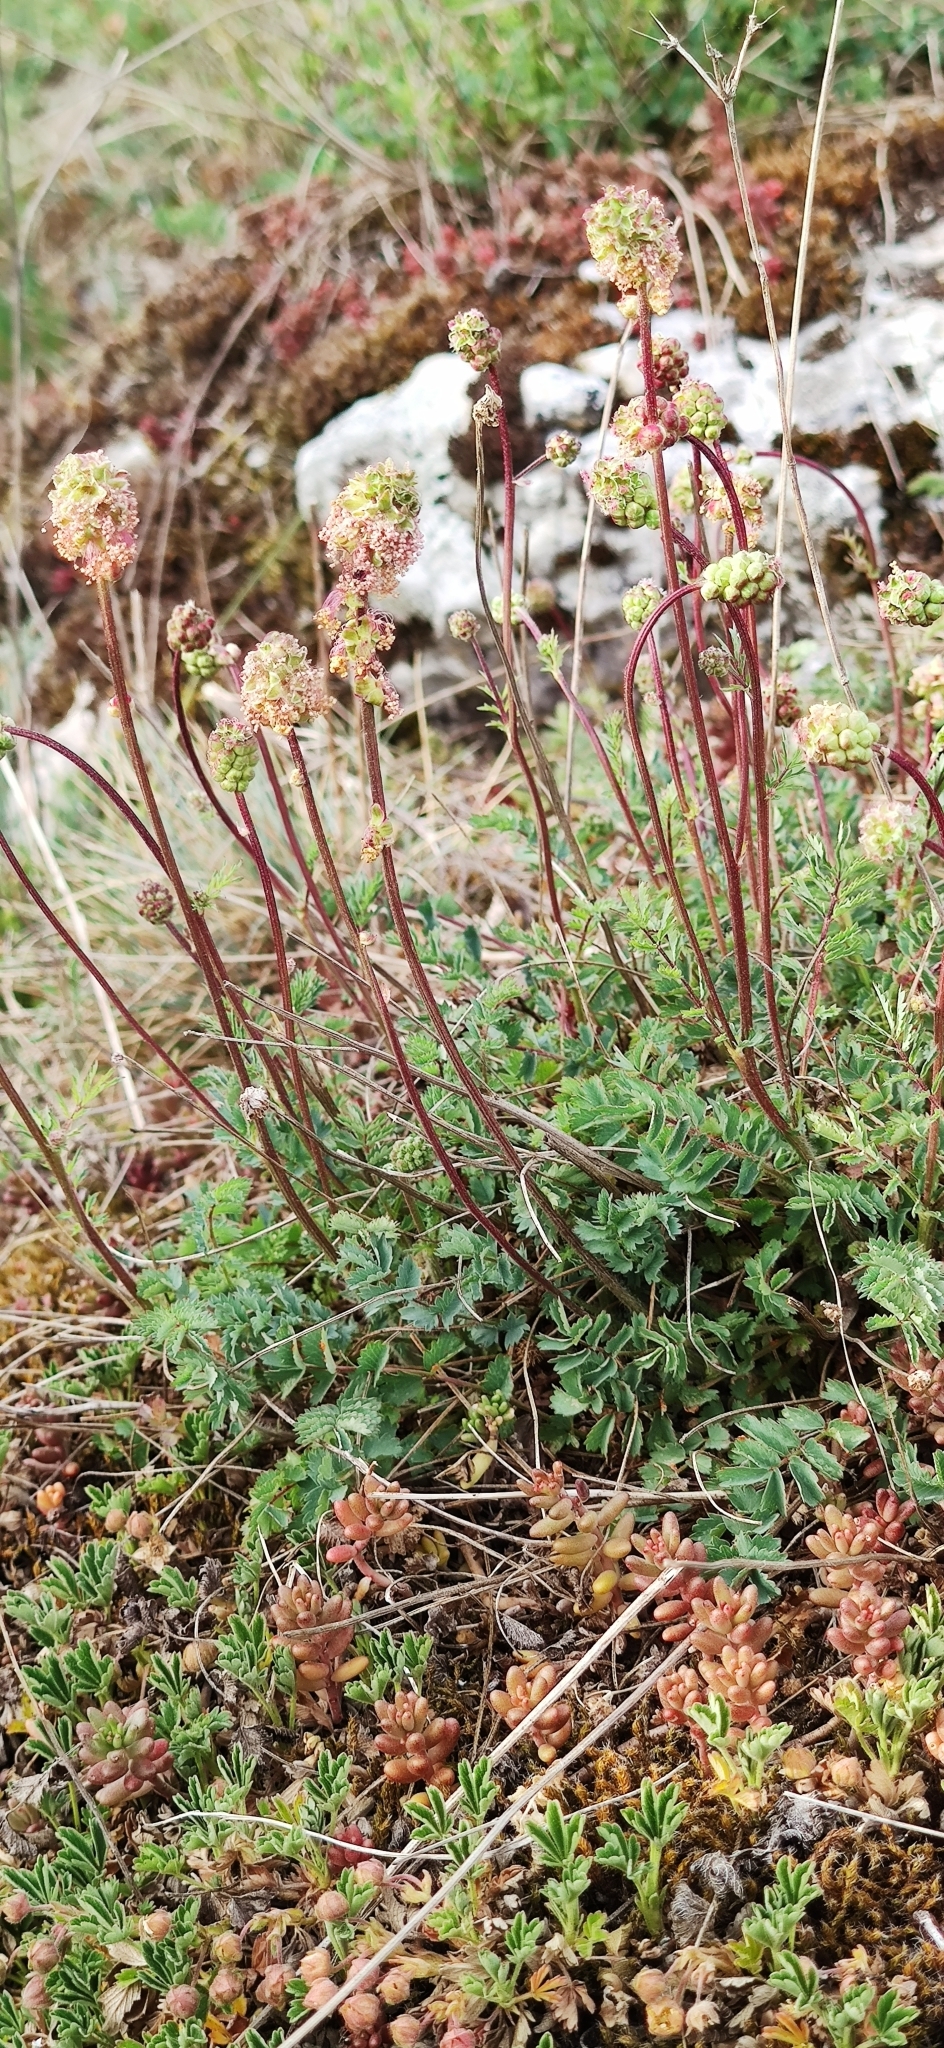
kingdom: Plantae
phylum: Tracheophyta
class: Magnoliopsida
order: Rosales
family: Rosaceae
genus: Poterium
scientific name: Poterium sanguisorba
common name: Salad burnet
